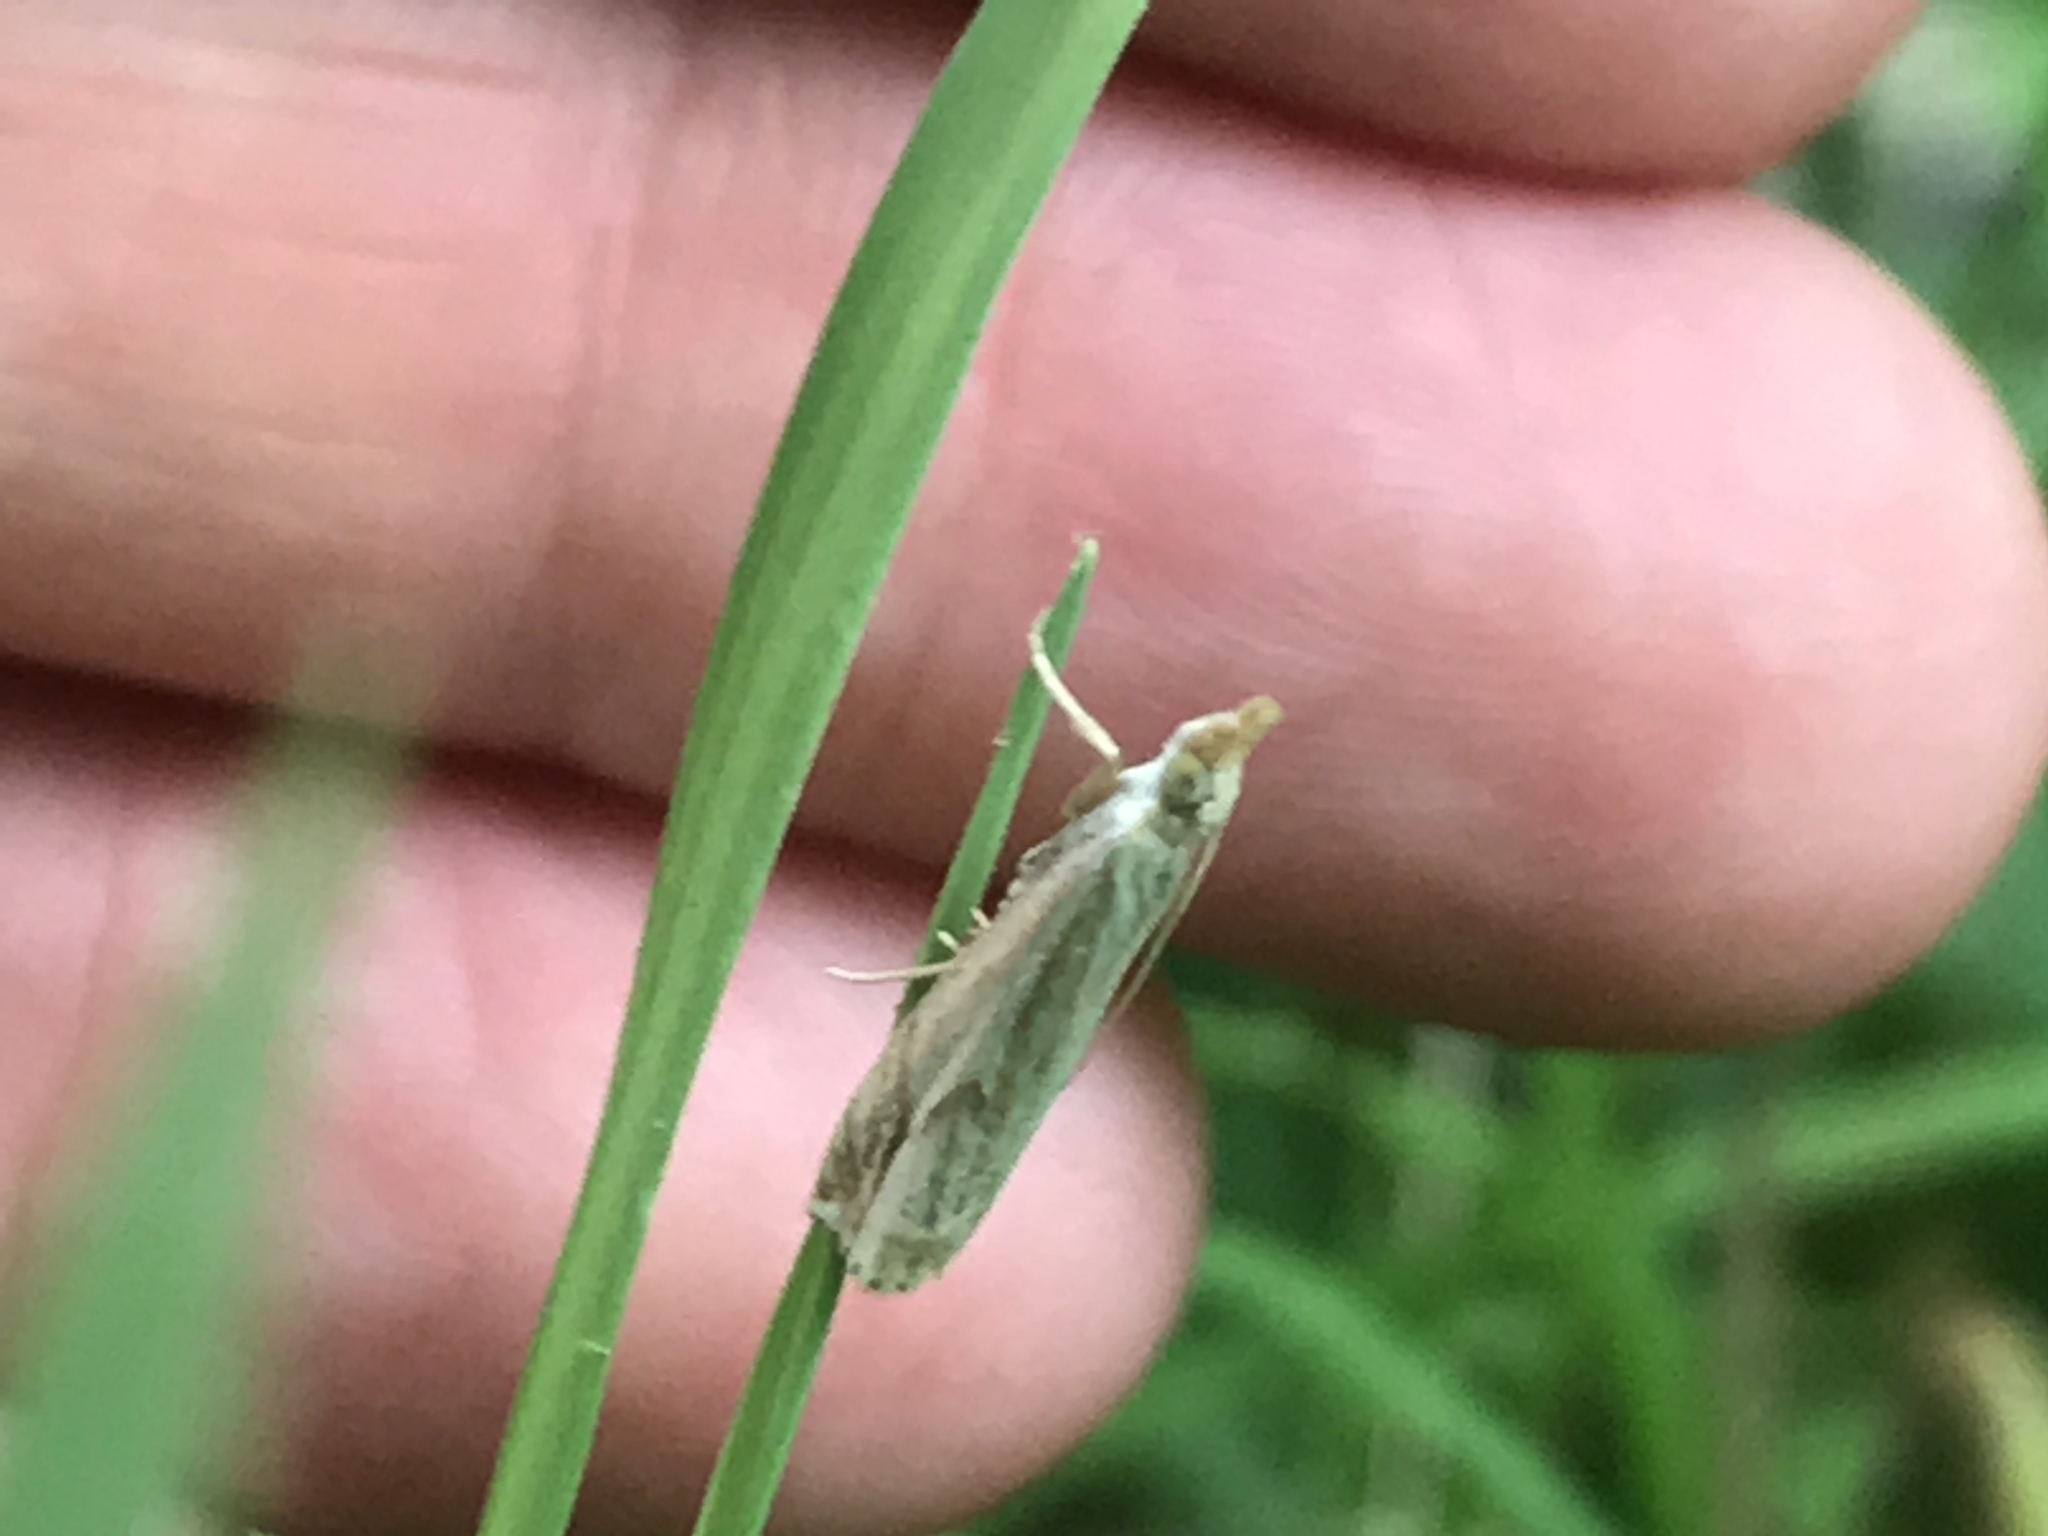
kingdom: Animalia
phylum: Arthropoda
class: Insecta
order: Lepidoptera
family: Crambidae
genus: Crambus
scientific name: Crambus agitatellus
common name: Double-banded grass-veneer
